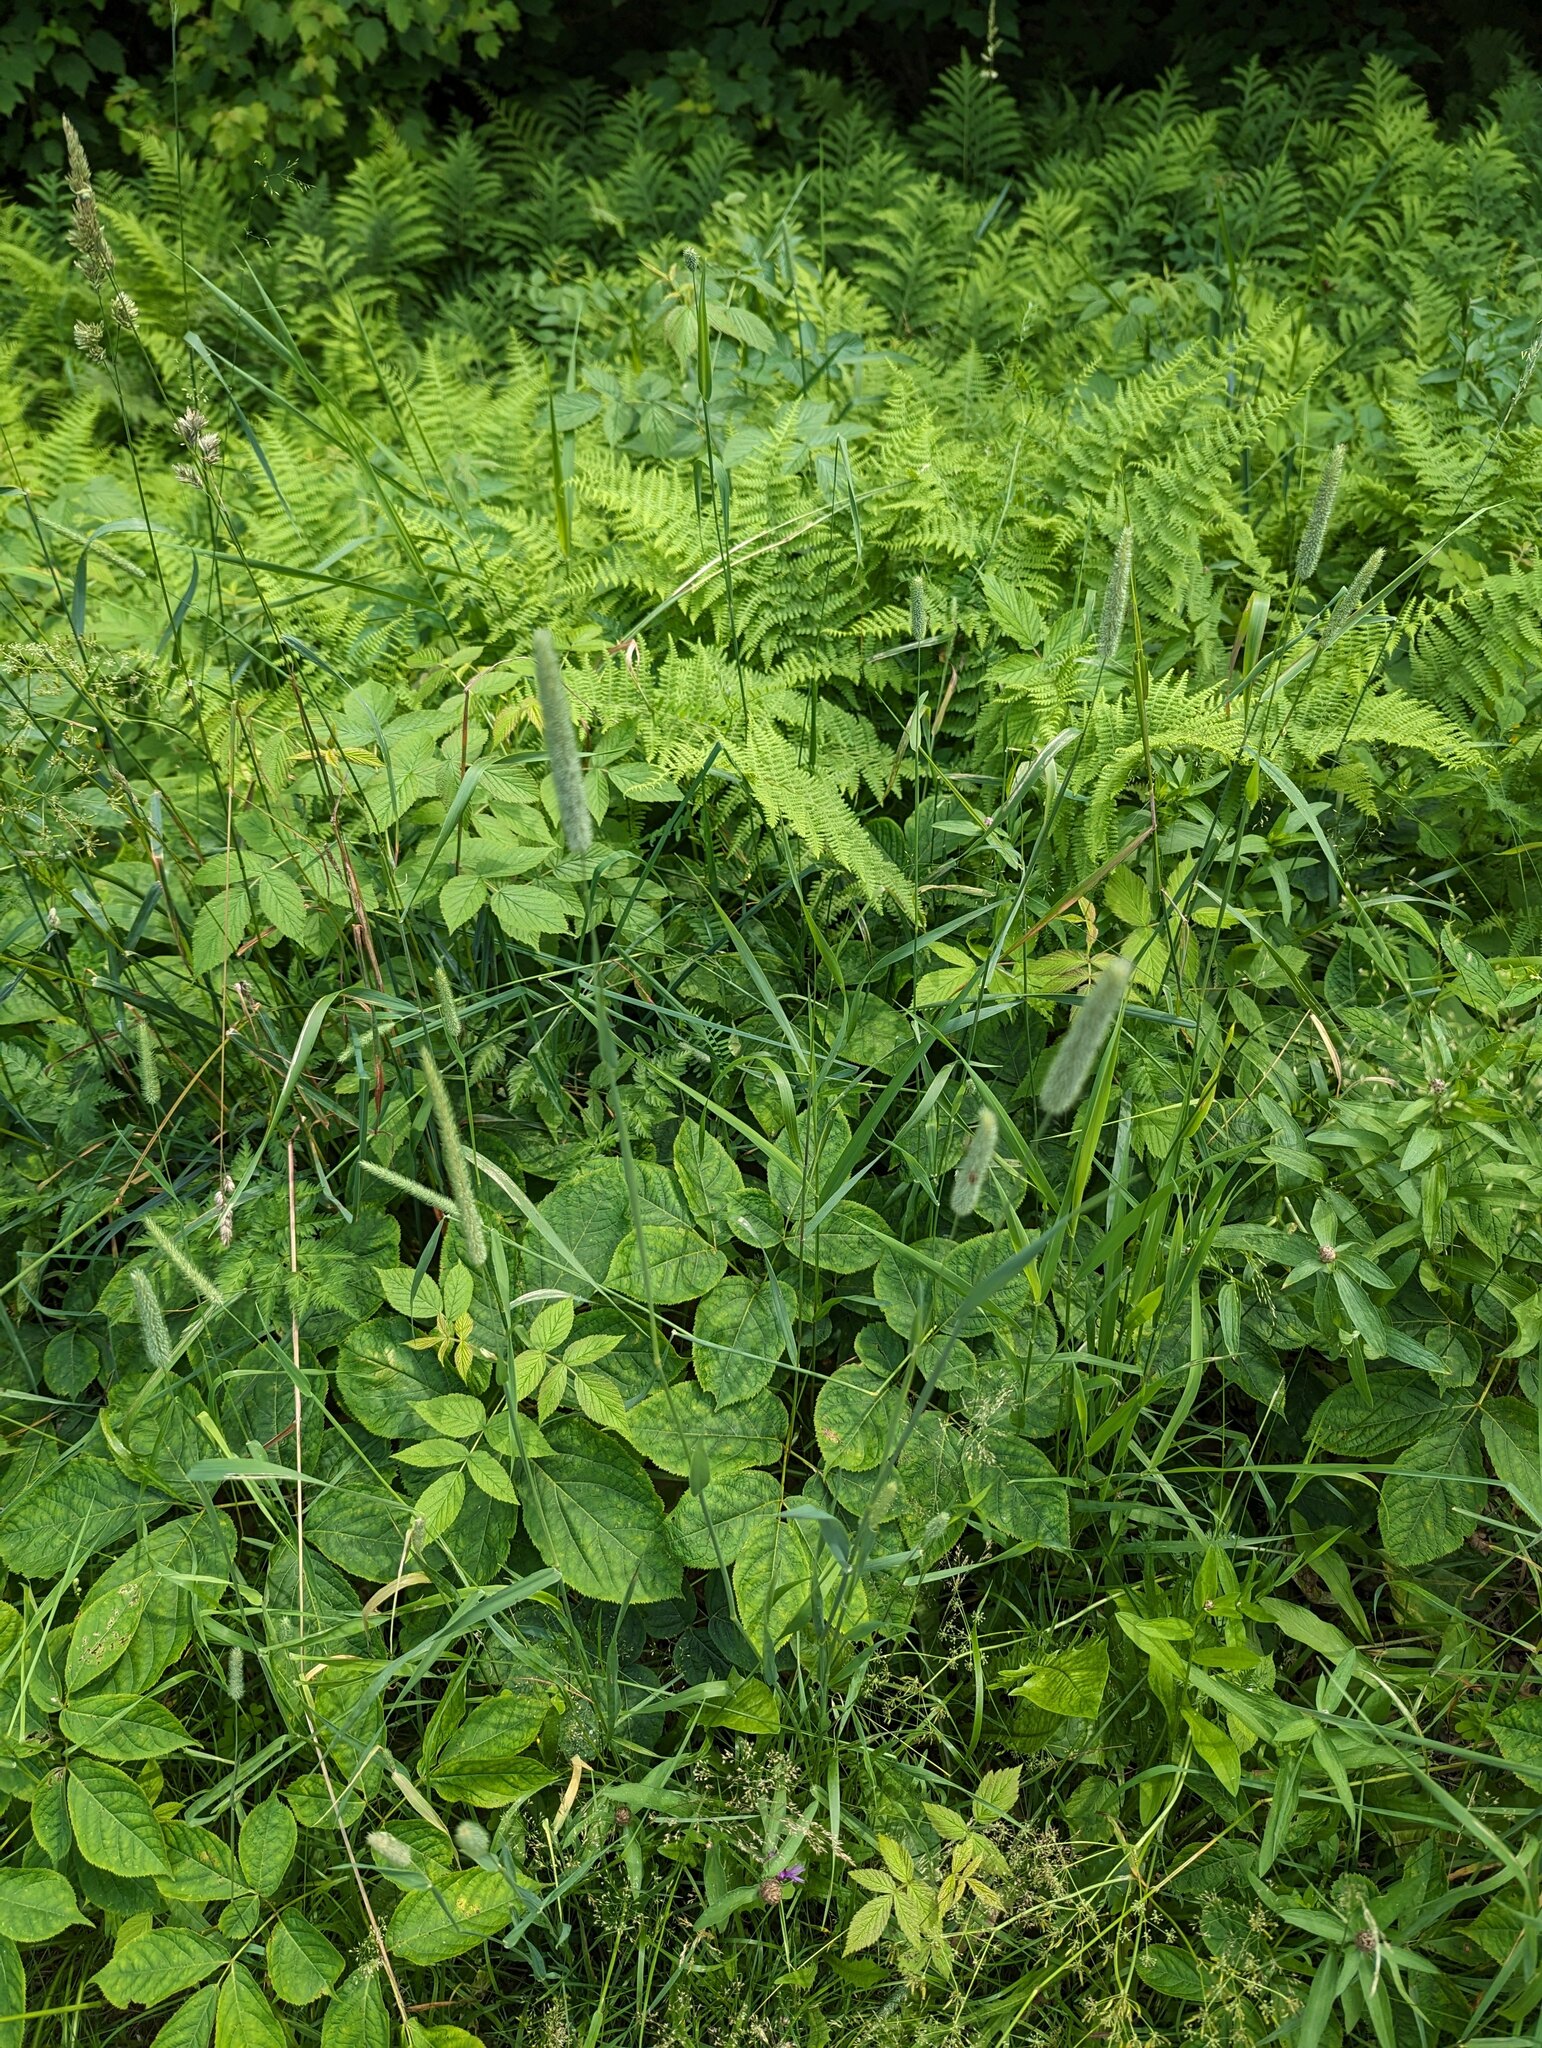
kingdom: Plantae
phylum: Tracheophyta
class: Liliopsida
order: Poales
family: Poaceae
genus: Phleum
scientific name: Phleum pratense
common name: Timothy grass
